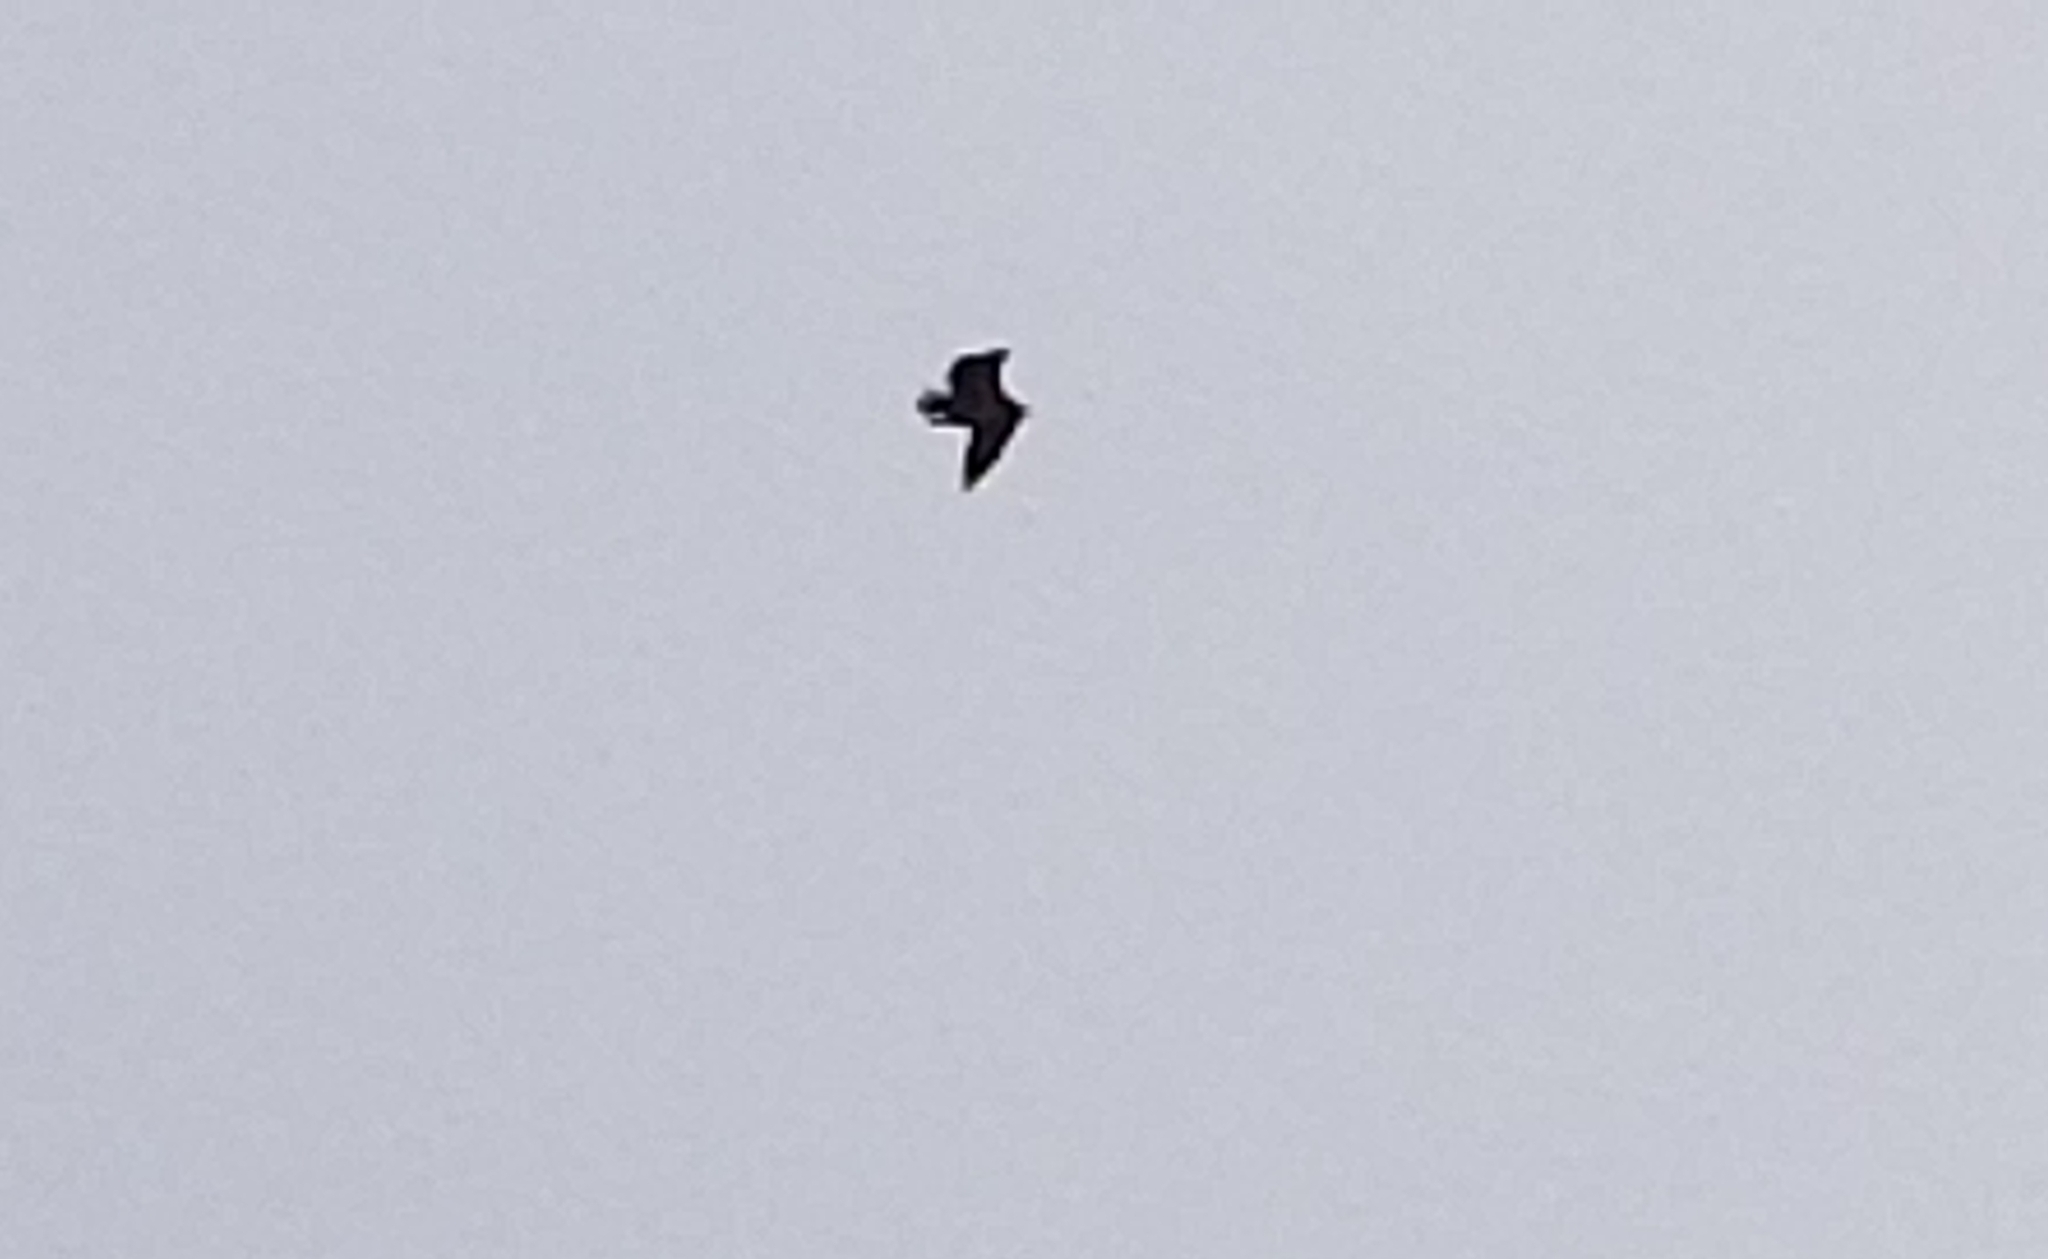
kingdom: Animalia
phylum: Chordata
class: Aves
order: Accipitriformes
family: Pandionidae
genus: Pandion
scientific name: Pandion haliaetus
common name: Osprey
